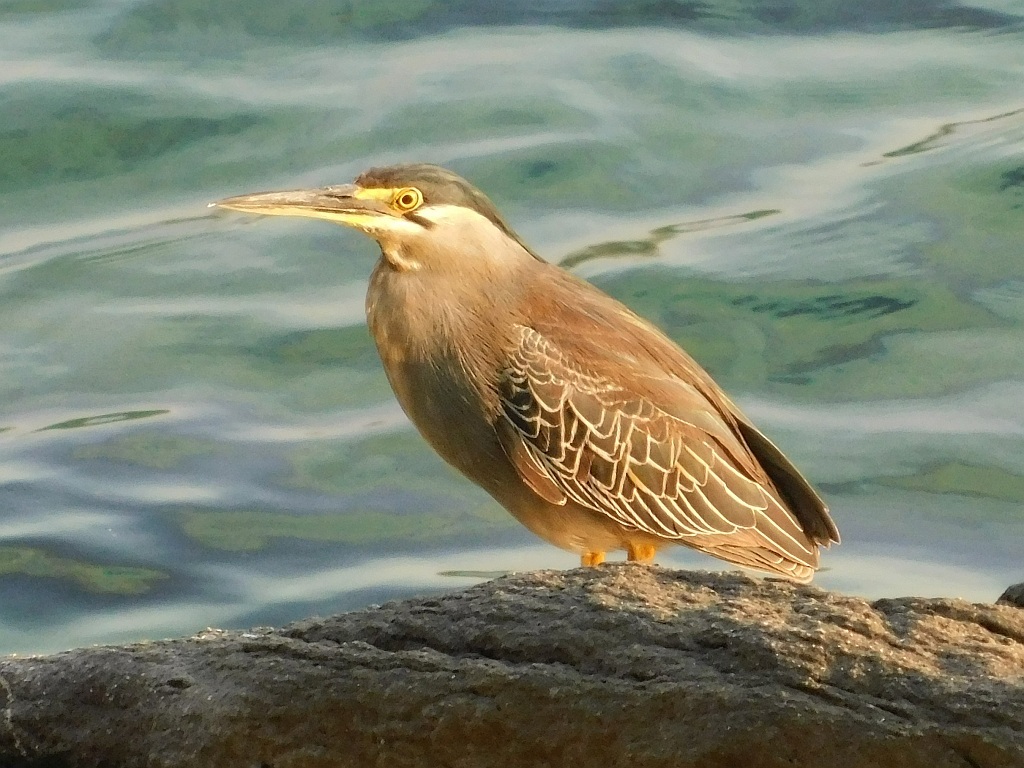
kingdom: Animalia
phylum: Chordata
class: Aves
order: Pelecaniformes
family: Ardeidae
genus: Butorides
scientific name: Butorides striata
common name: Striated heron
